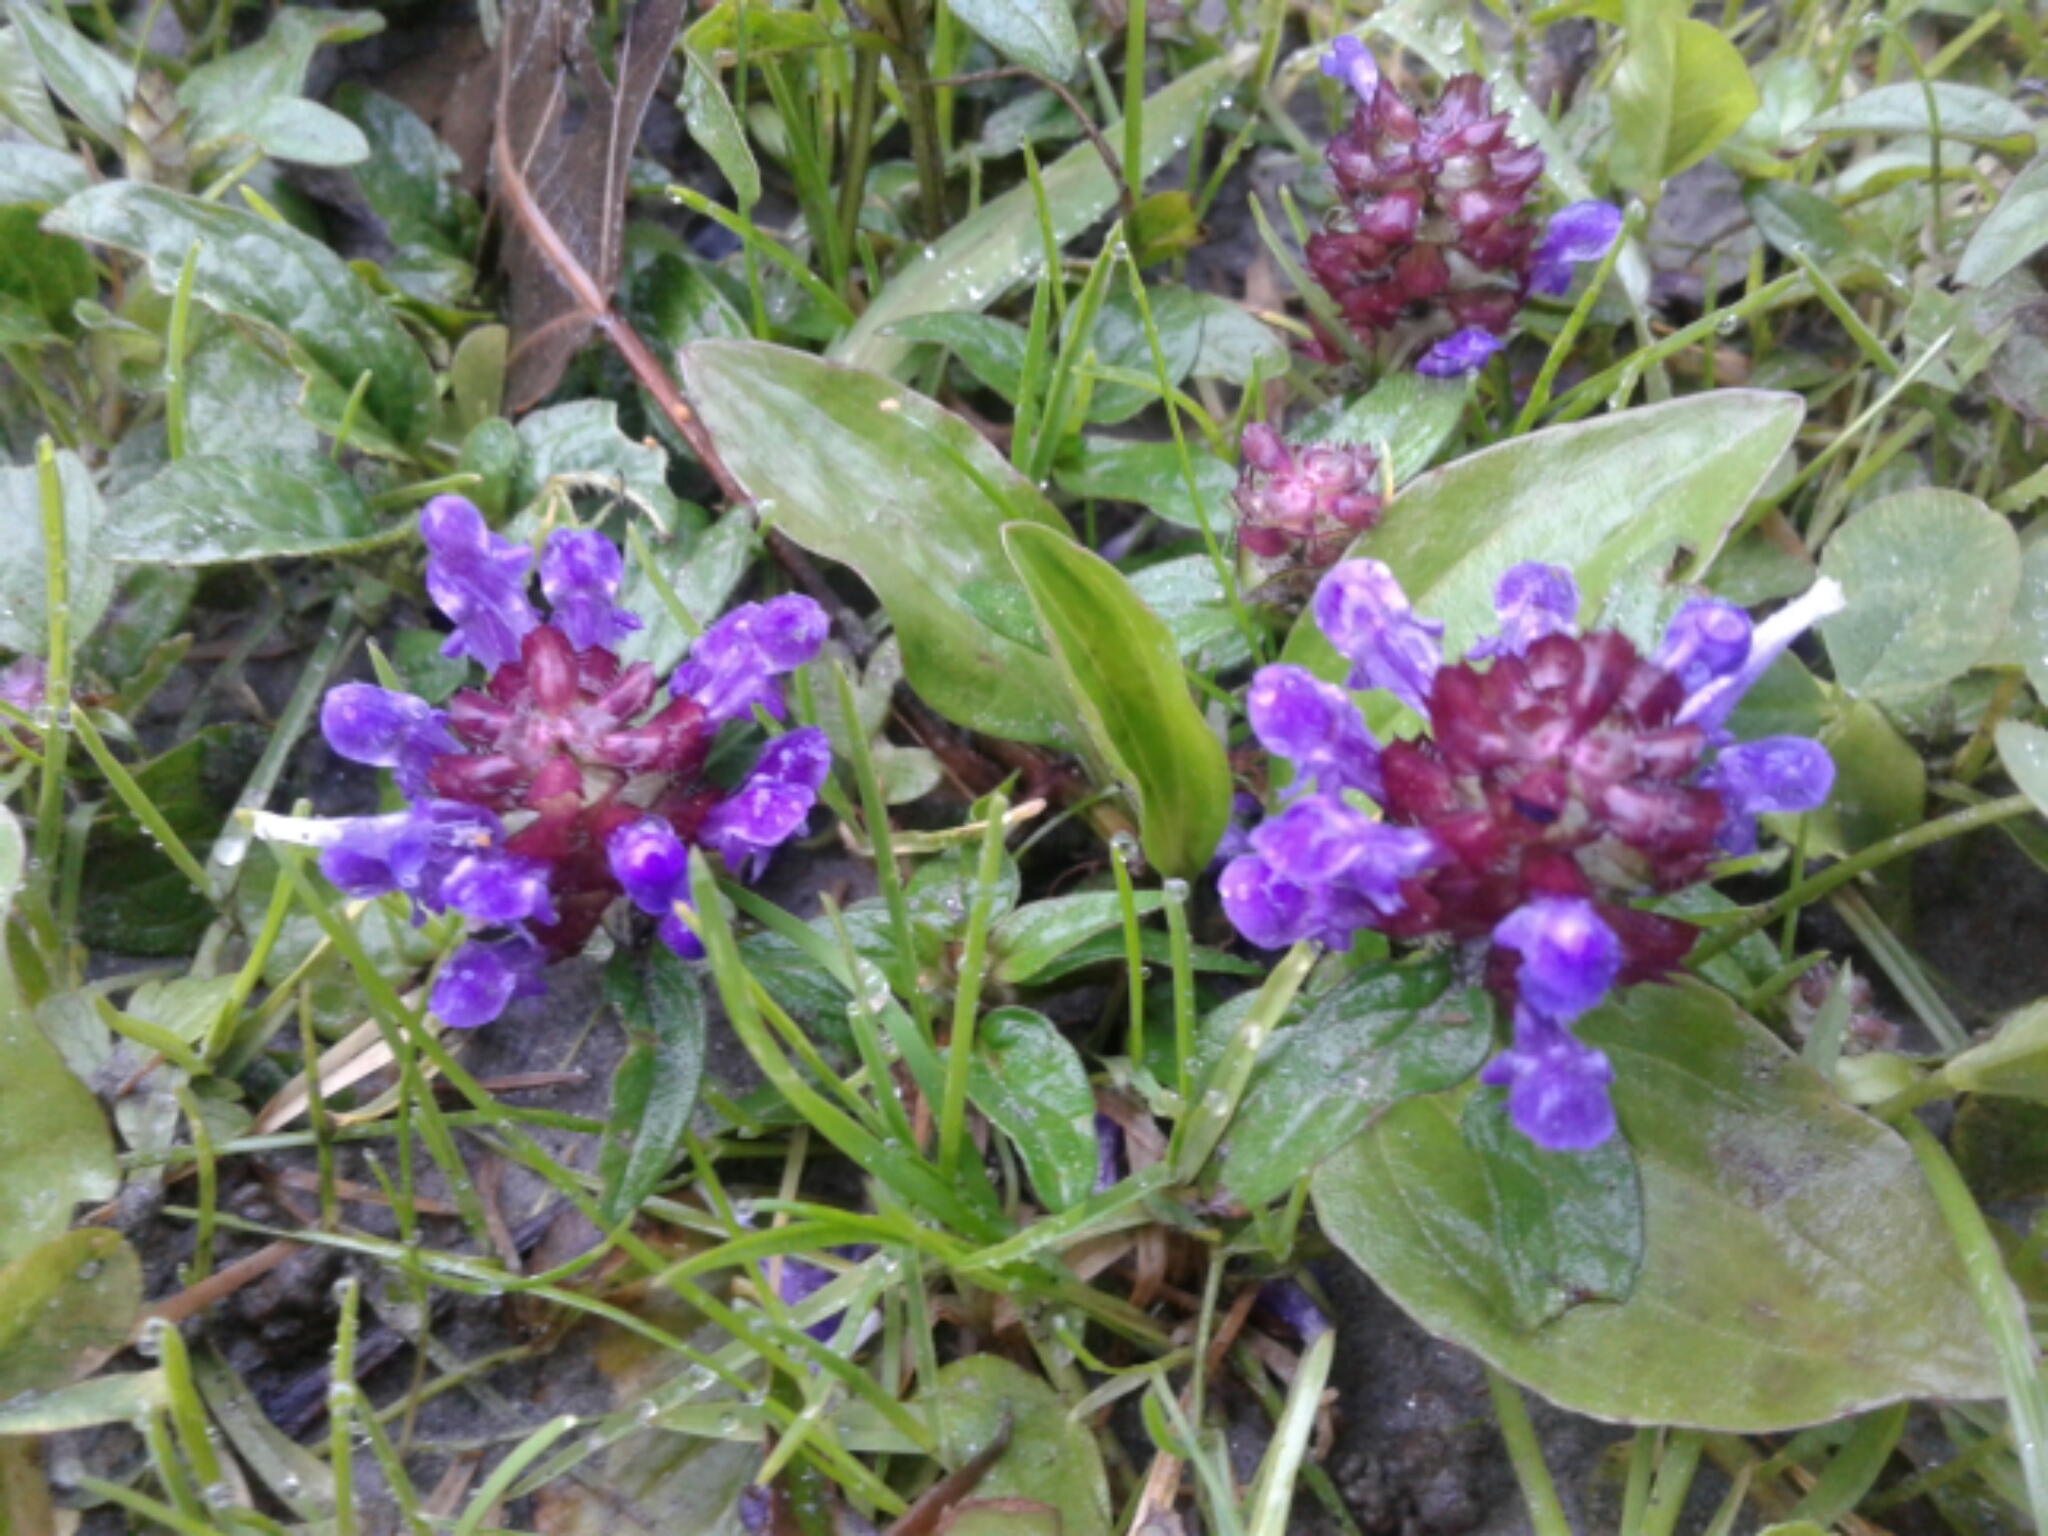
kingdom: Plantae
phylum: Tracheophyta
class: Magnoliopsida
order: Lamiales
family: Lamiaceae
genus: Prunella
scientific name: Prunella vulgaris
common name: Heal-all
